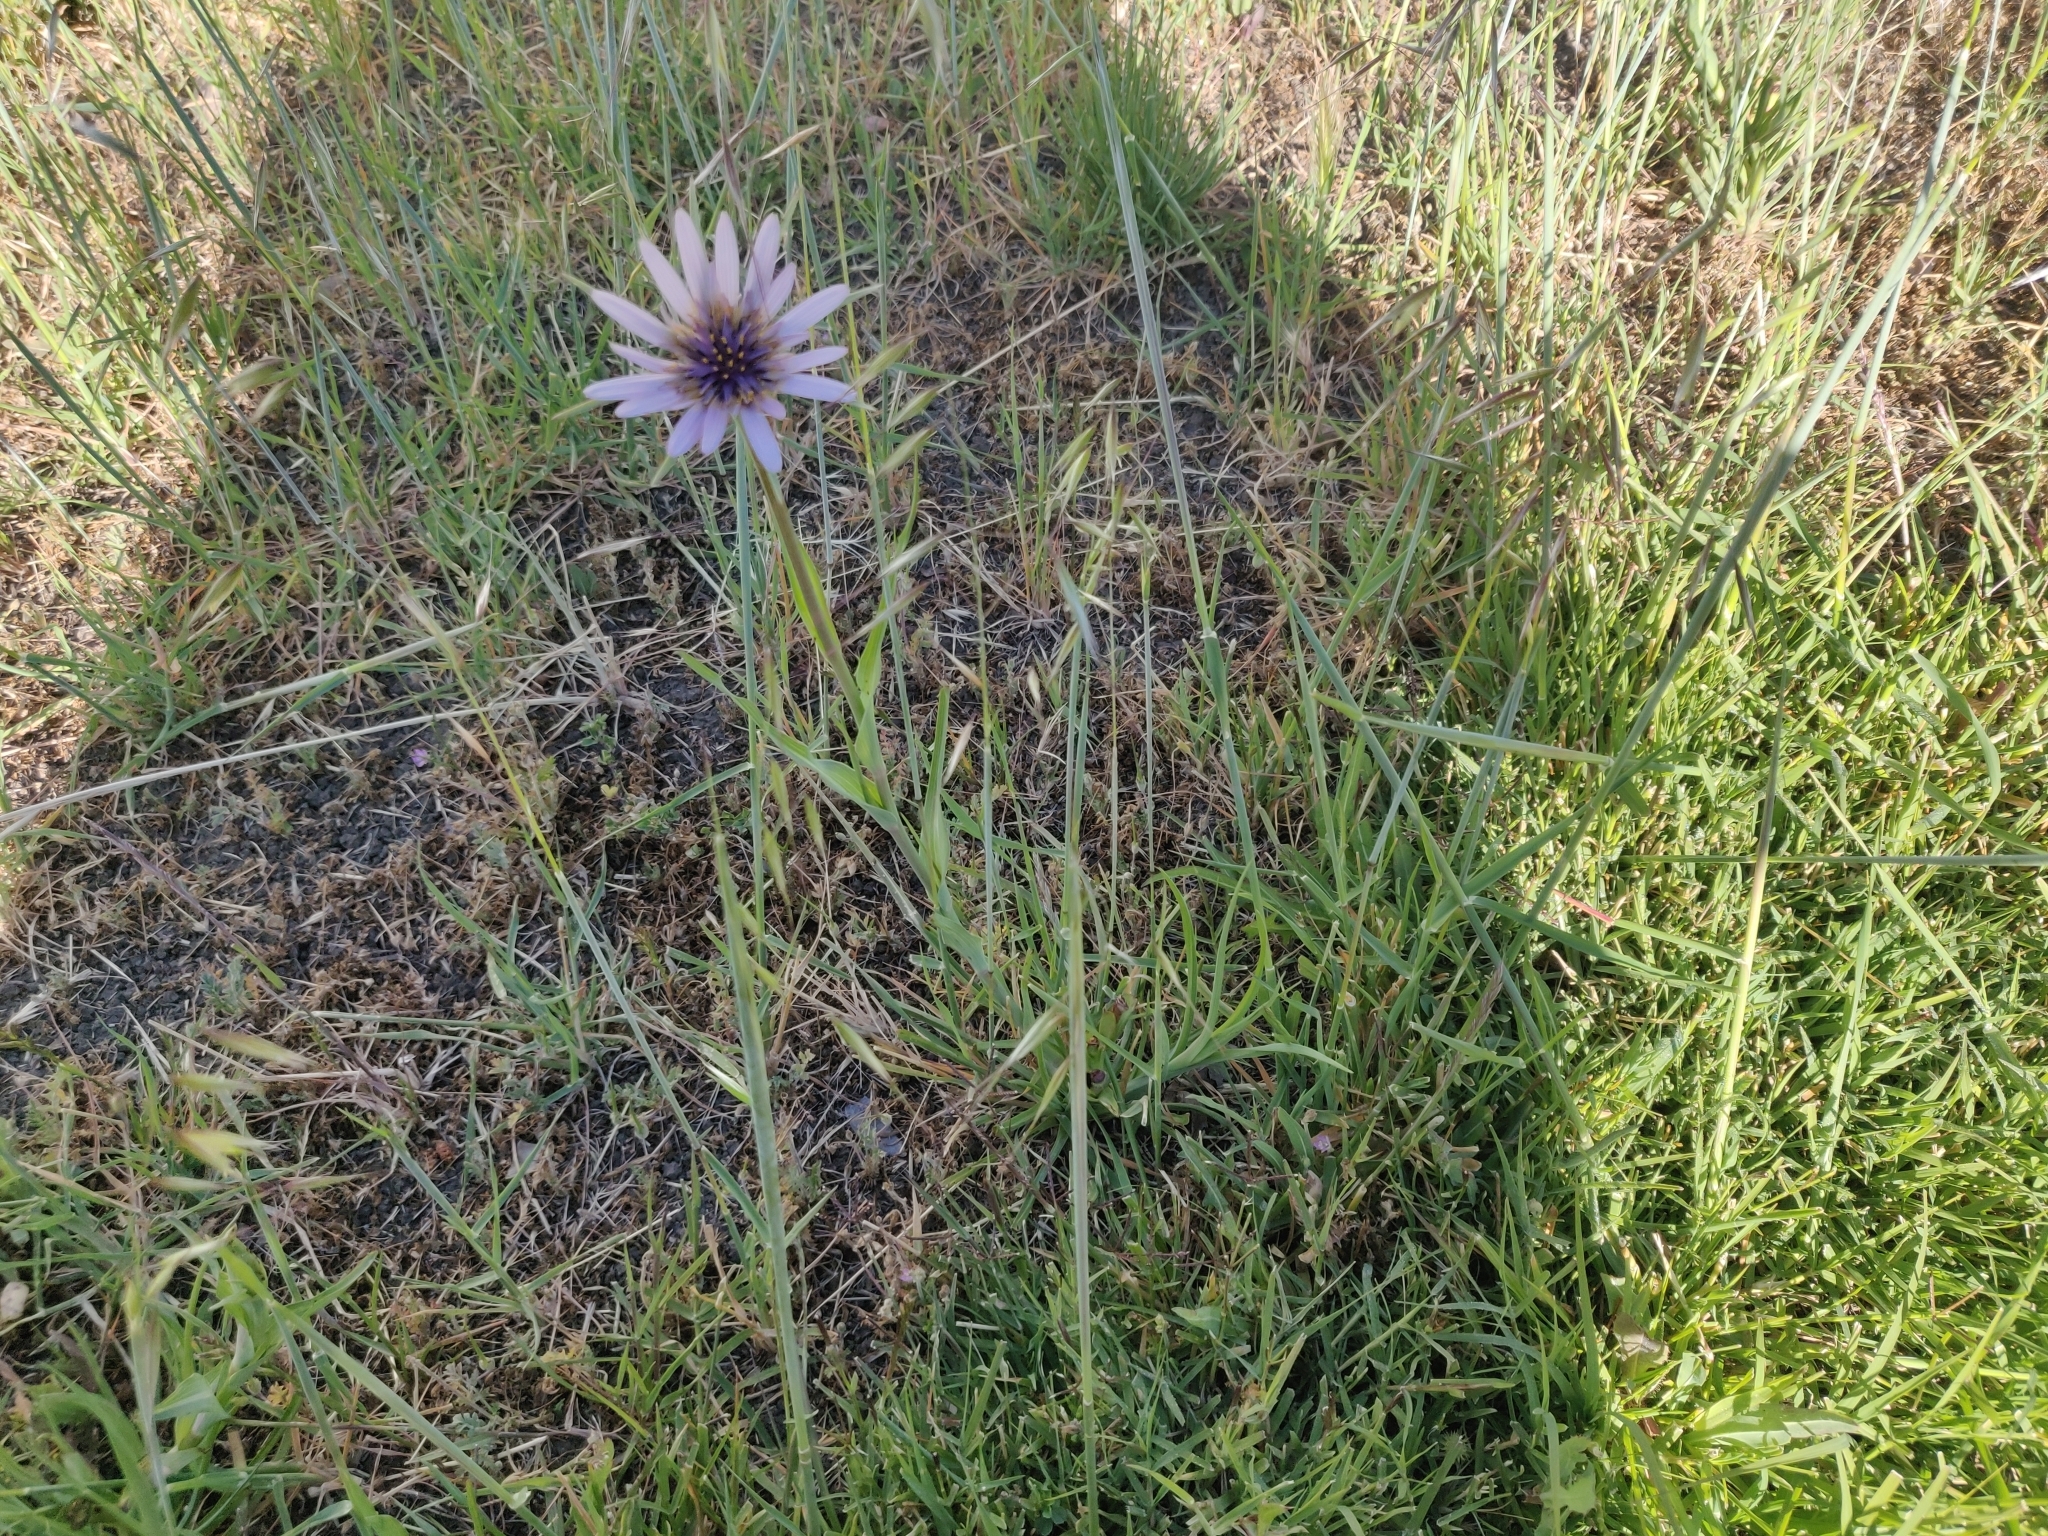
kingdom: Plantae
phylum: Tracheophyta
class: Magnoliopsida
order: Asterales
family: Asteraceae
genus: Tragopogon
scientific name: Tragopogon porrifolius
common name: Salsify
